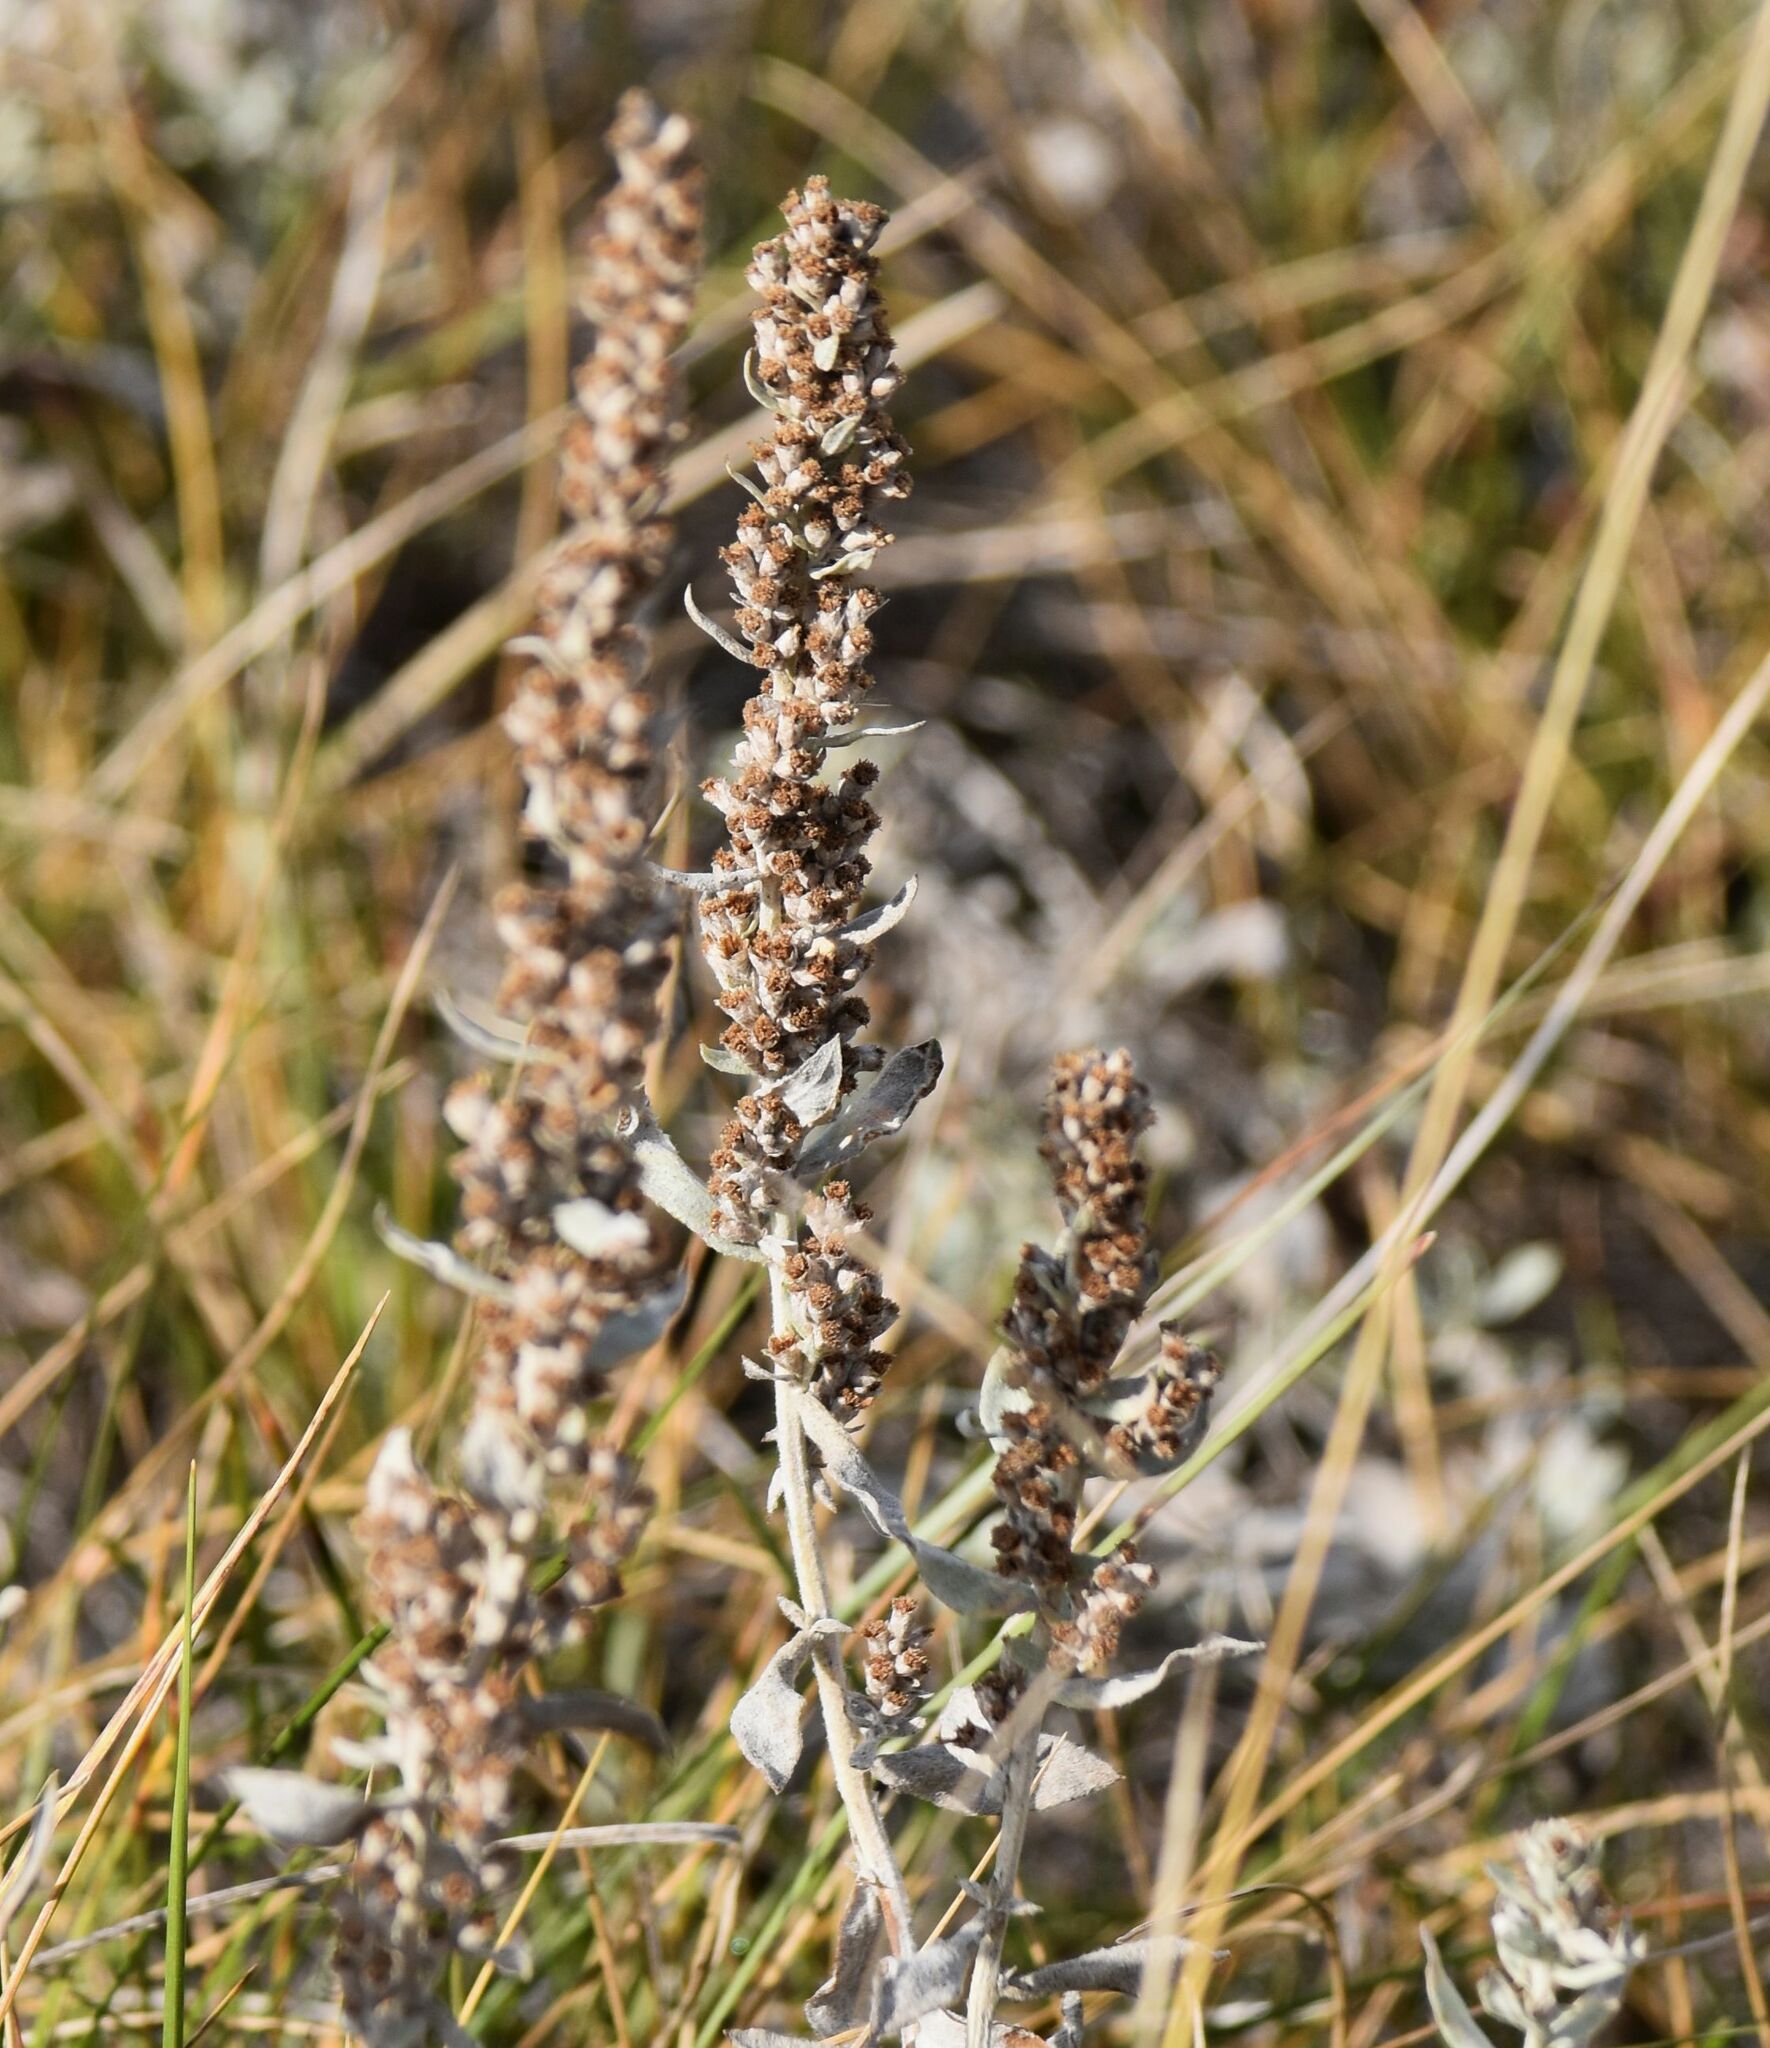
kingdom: Plantae
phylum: Tracheophyta
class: Magnoliopsida
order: Asterales
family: Asteraceae
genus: Artemisia
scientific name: Artemisia ludoviciana
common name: Western mugwort
